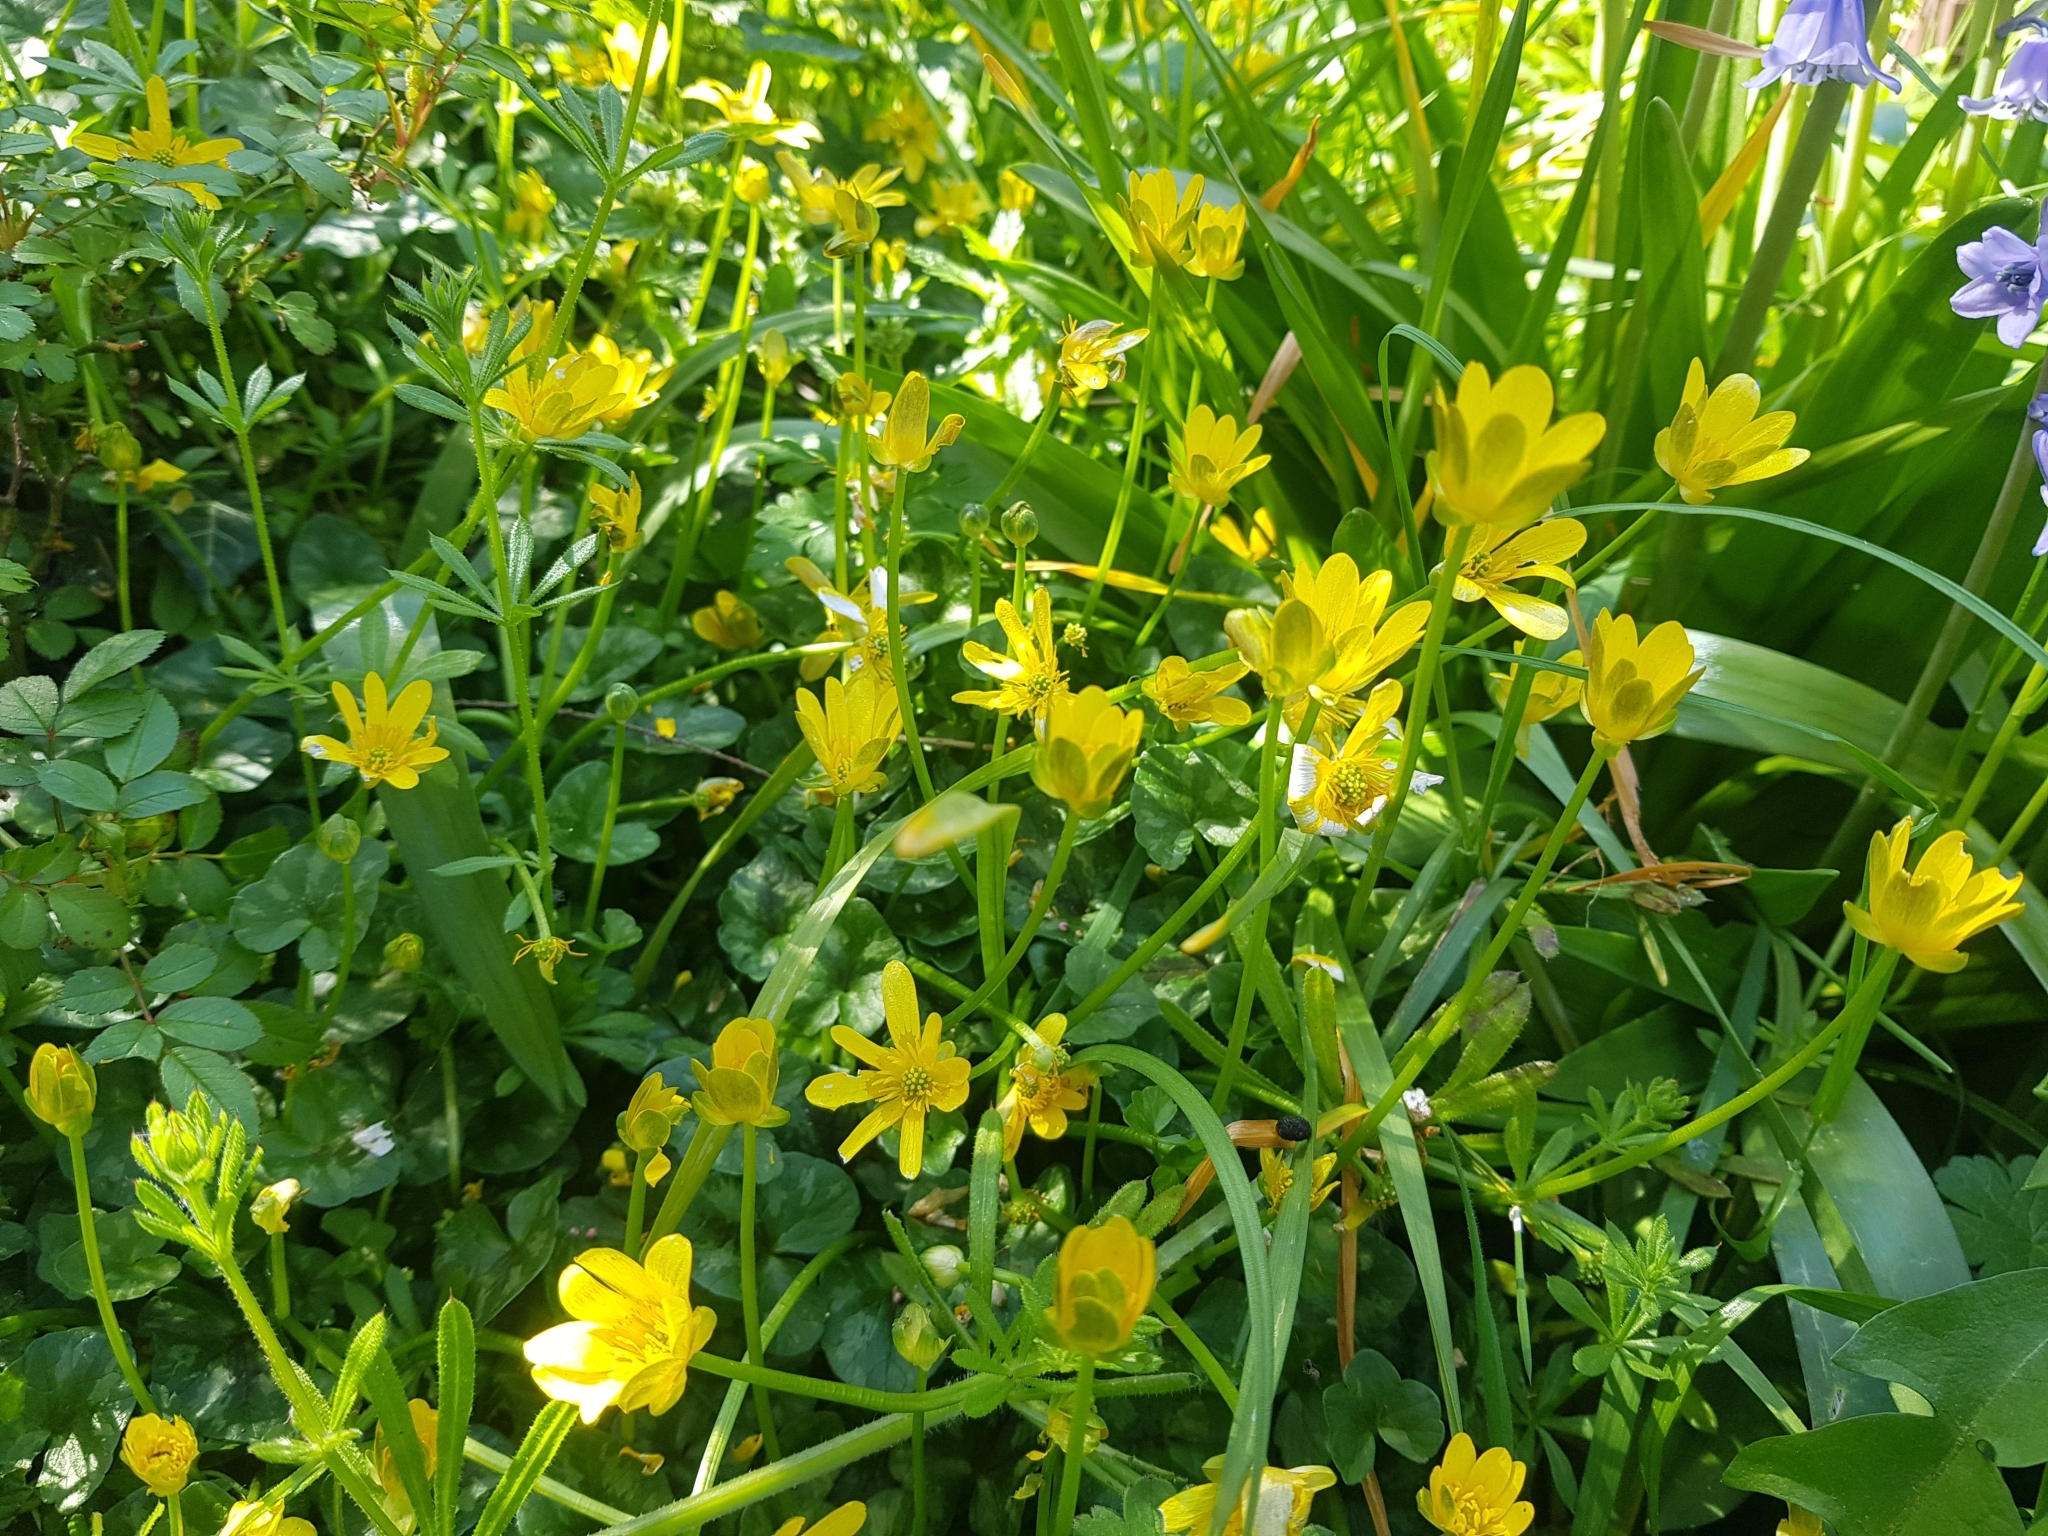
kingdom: Plantae
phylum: Tracheophyta
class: Magnoliopsida
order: Ranunculales
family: Ranunculaceae
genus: Ficaria
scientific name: Ficaria verna
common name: Lesser celandine
